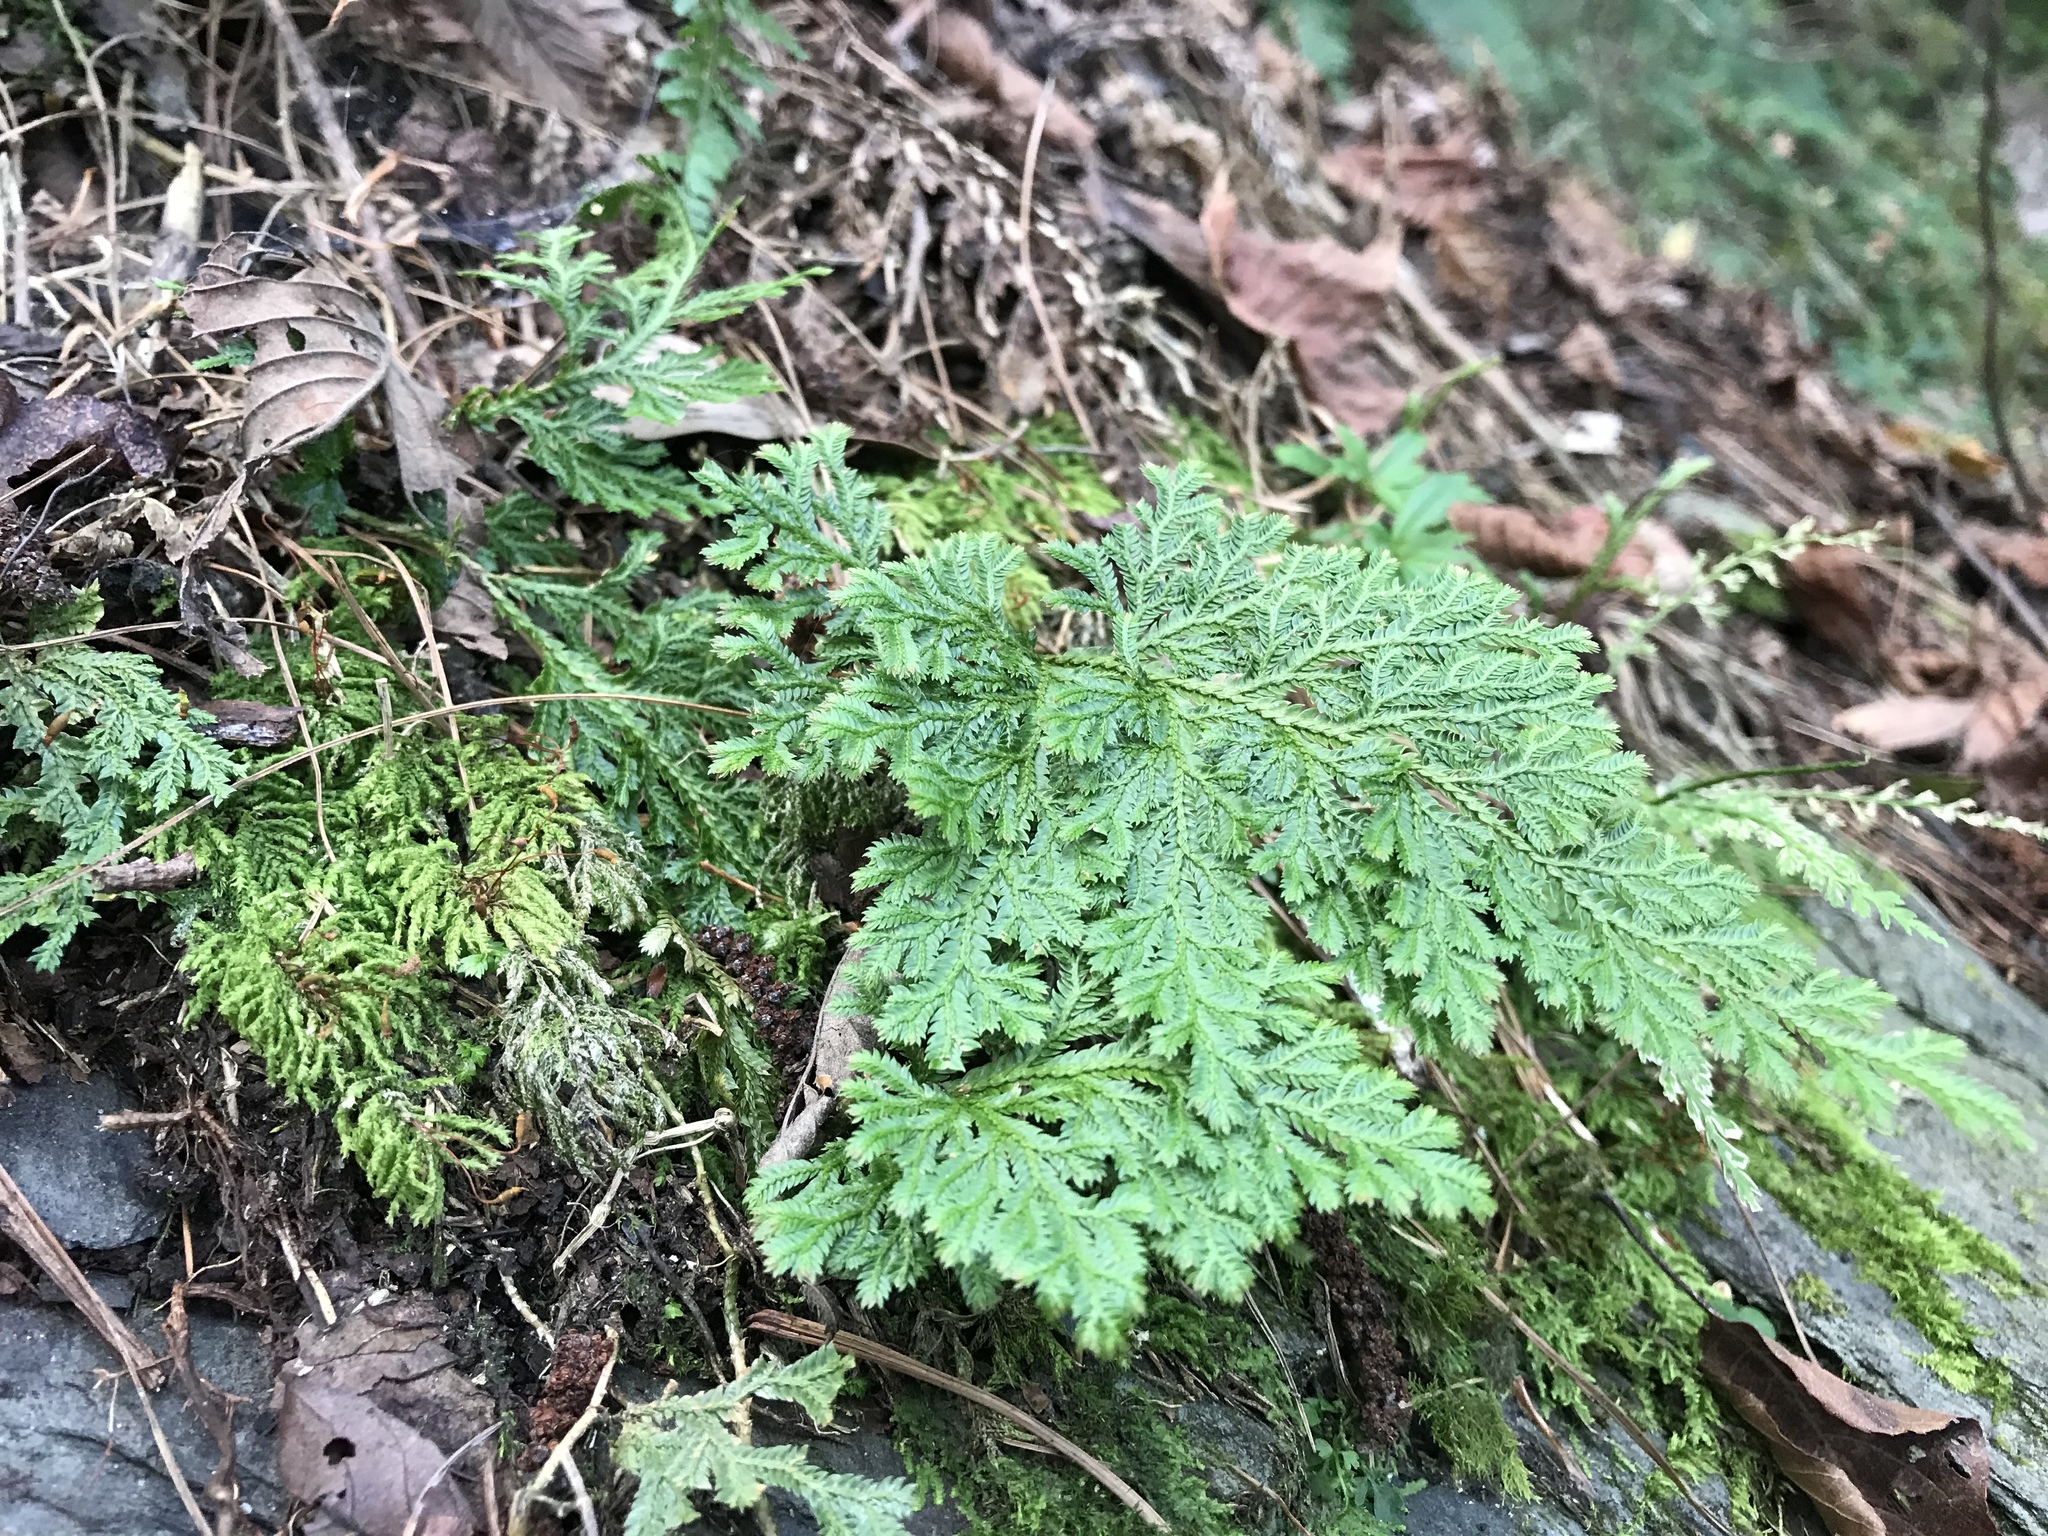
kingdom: Plantae
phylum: Tracheophyta
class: Lycopodiopsida
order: Selaginellales
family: Selaginellaceae
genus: Selaginella
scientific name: Selaginella moellendorffii
